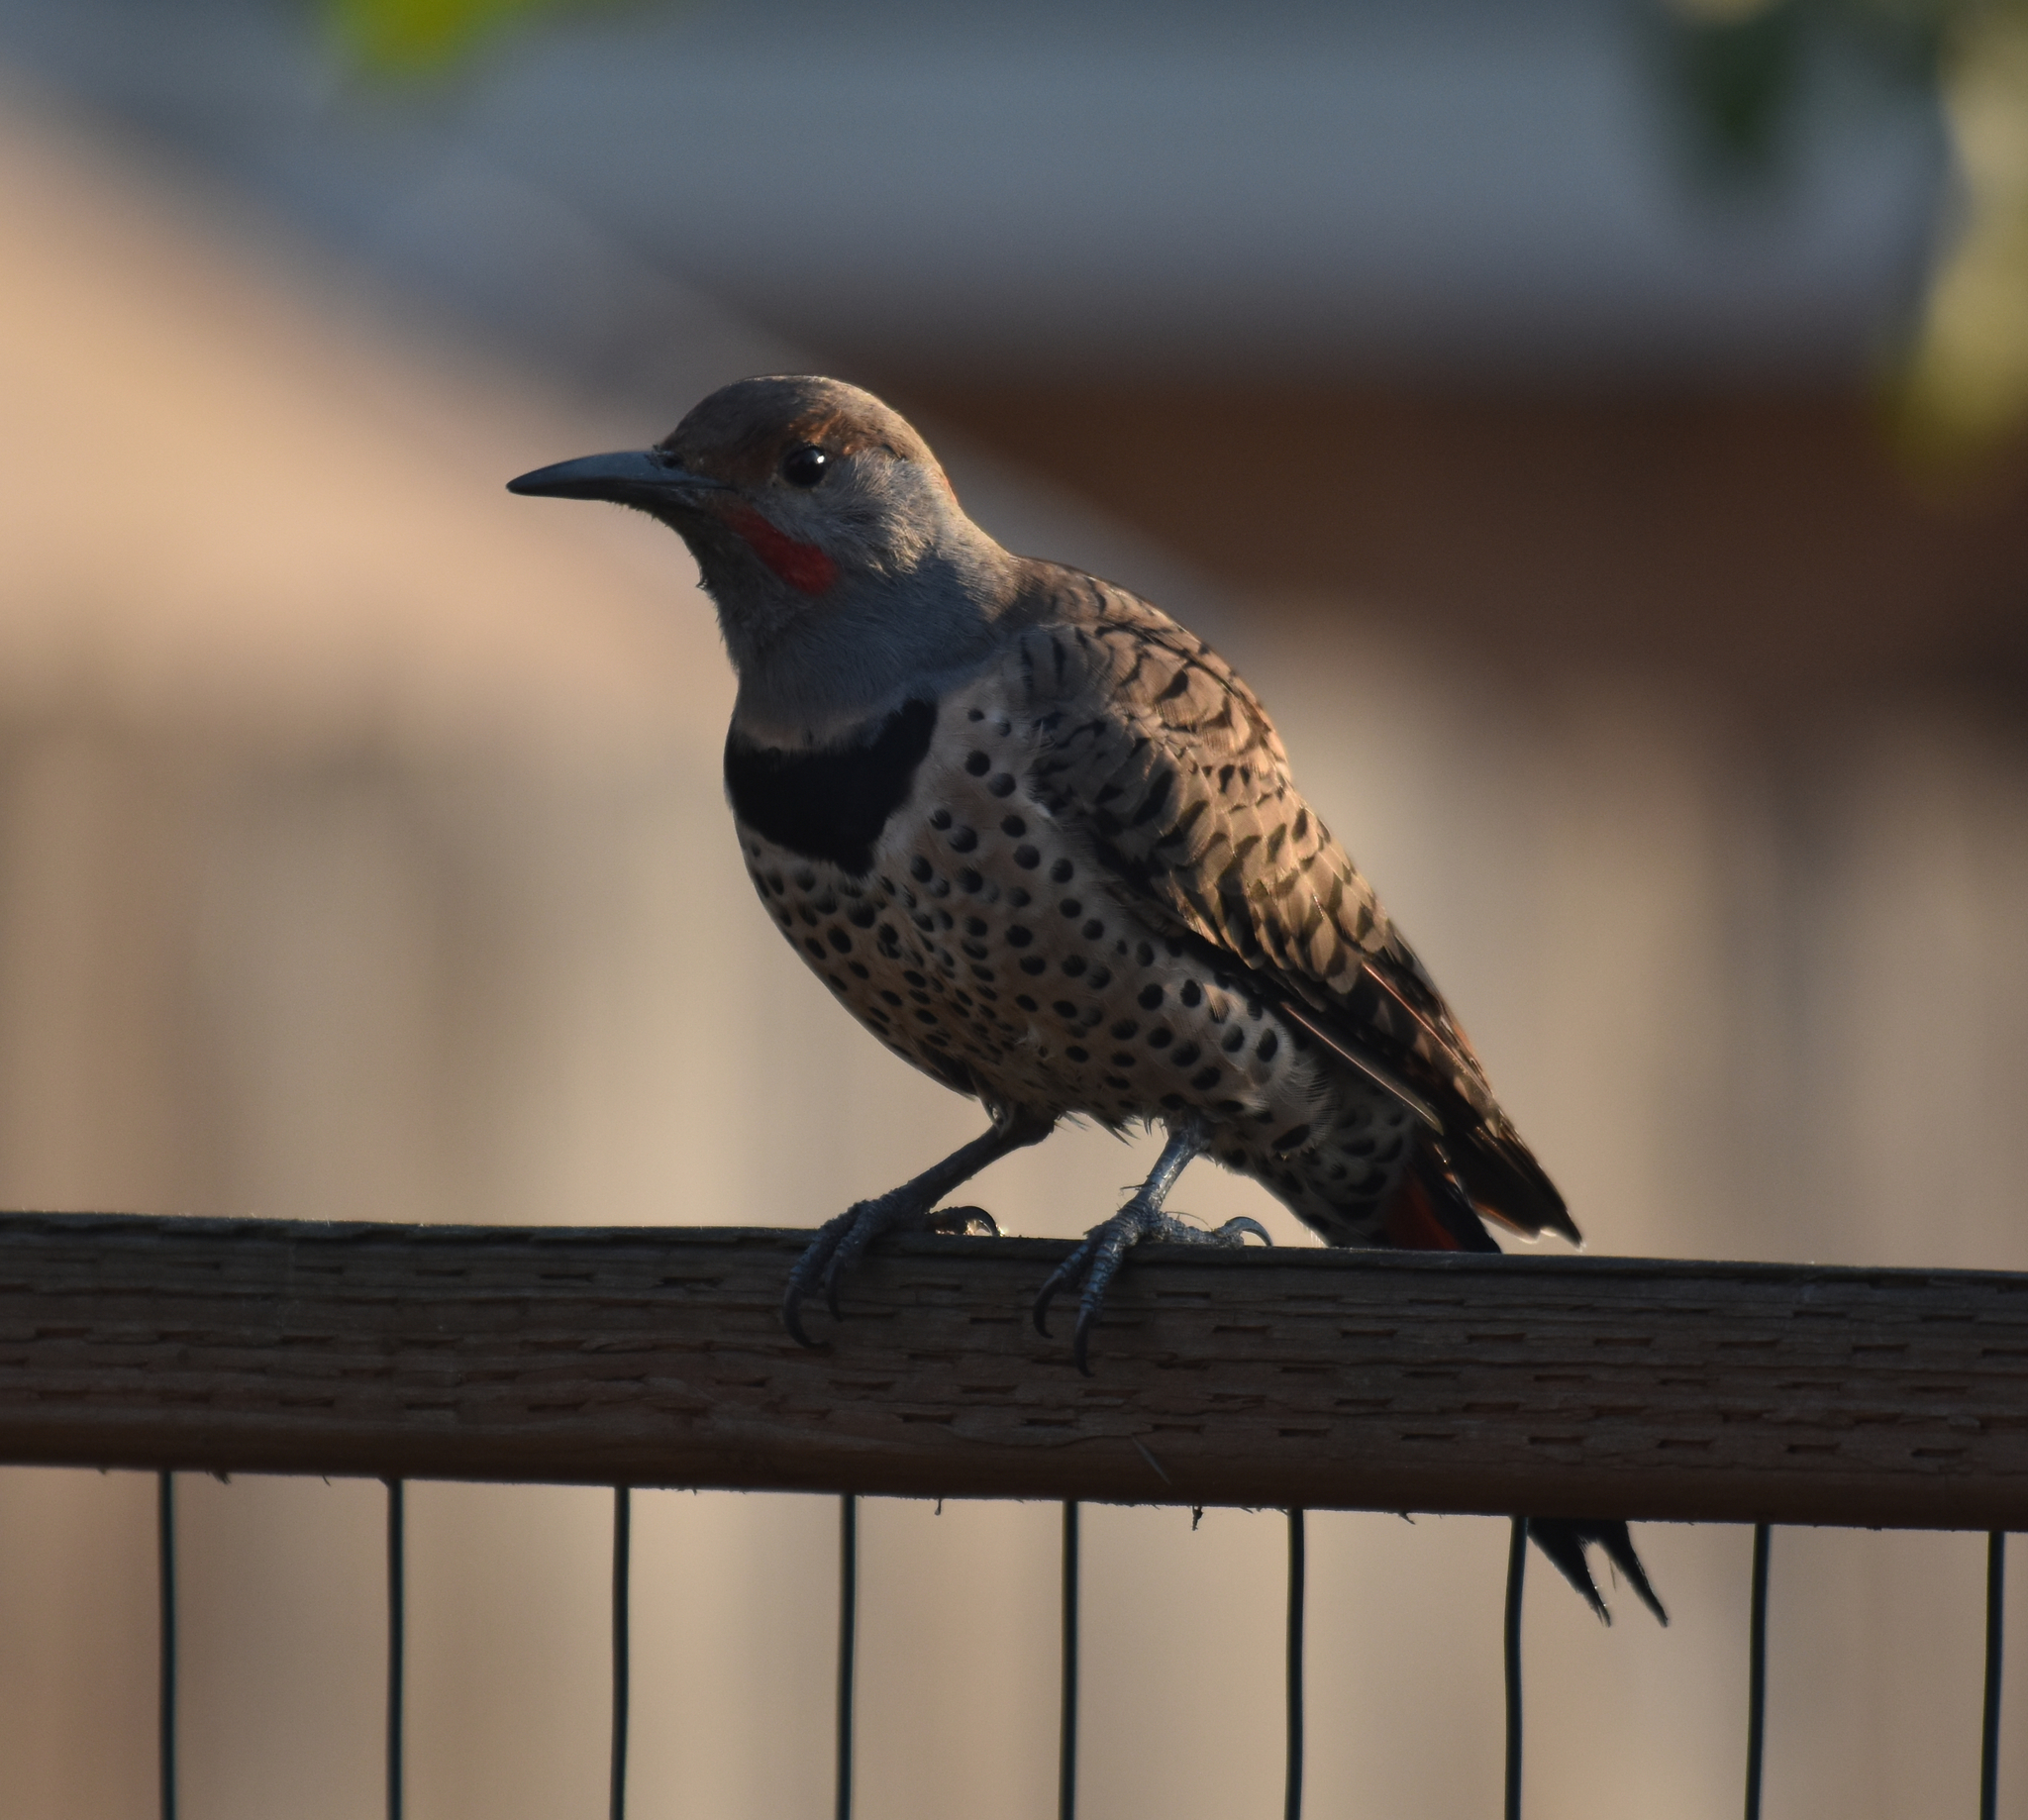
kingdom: Animalia
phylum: Chordata
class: Aves
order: Piciformes
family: Picidae
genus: Colaptes
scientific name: Colaptes auratus
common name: Northern flicker
